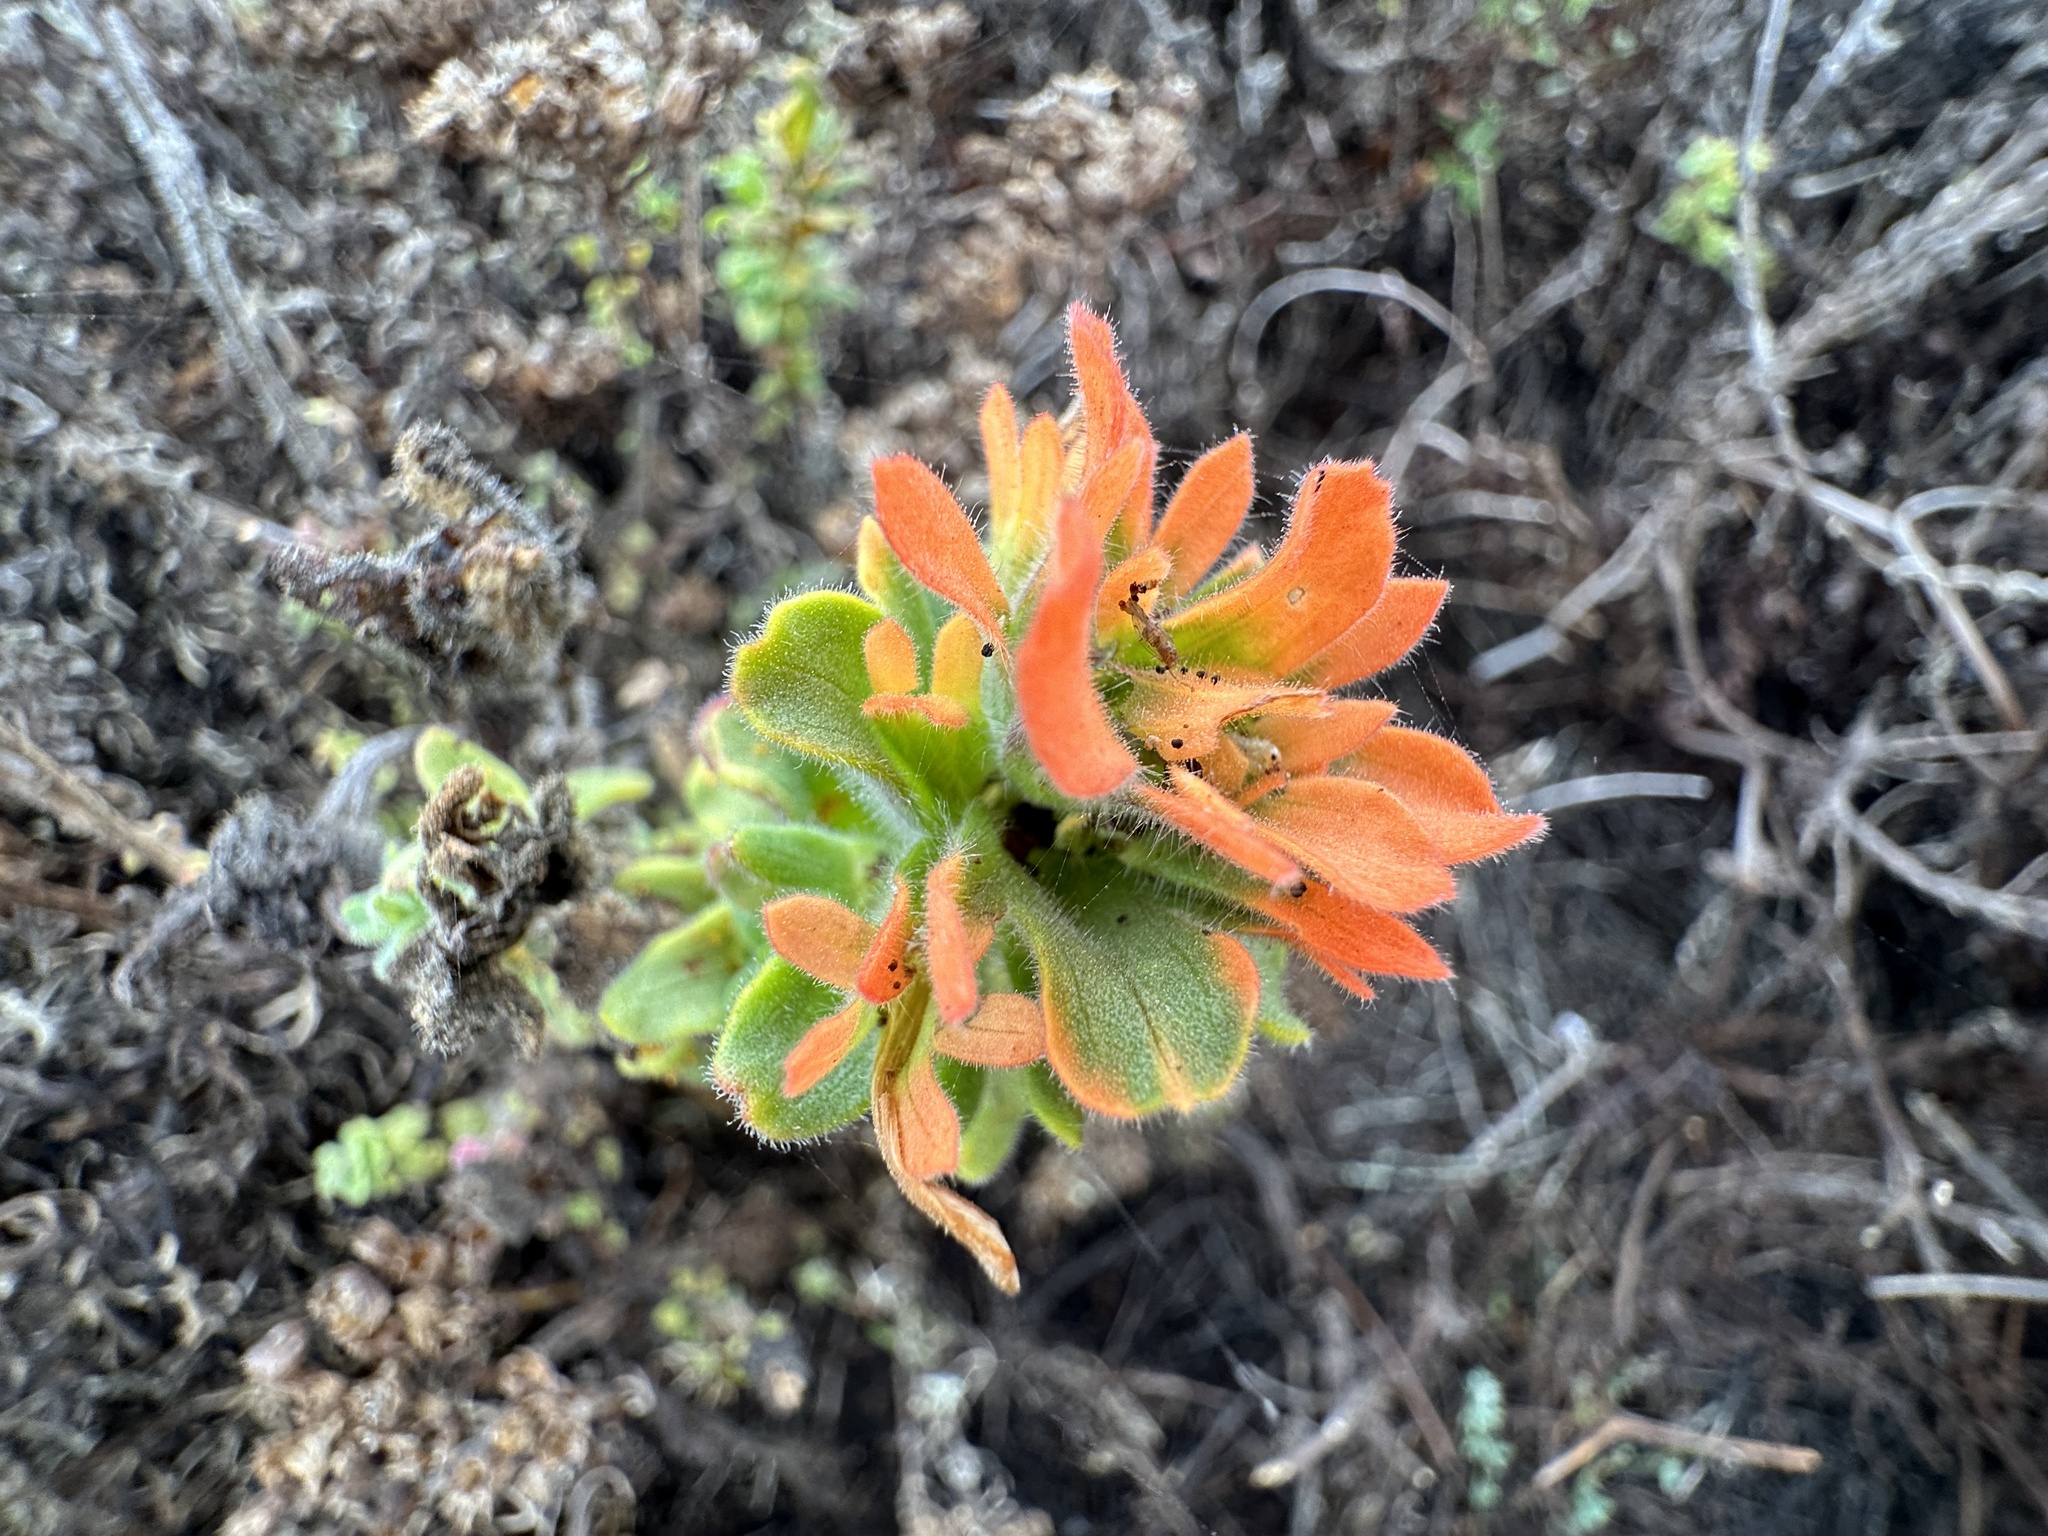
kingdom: Plantae
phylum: Tracheophyta
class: Magnoliopsida
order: Lamiales
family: Orobanchaceae
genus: Castilleja
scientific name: Castilleja latifolia
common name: Monterey indian paintbrush
